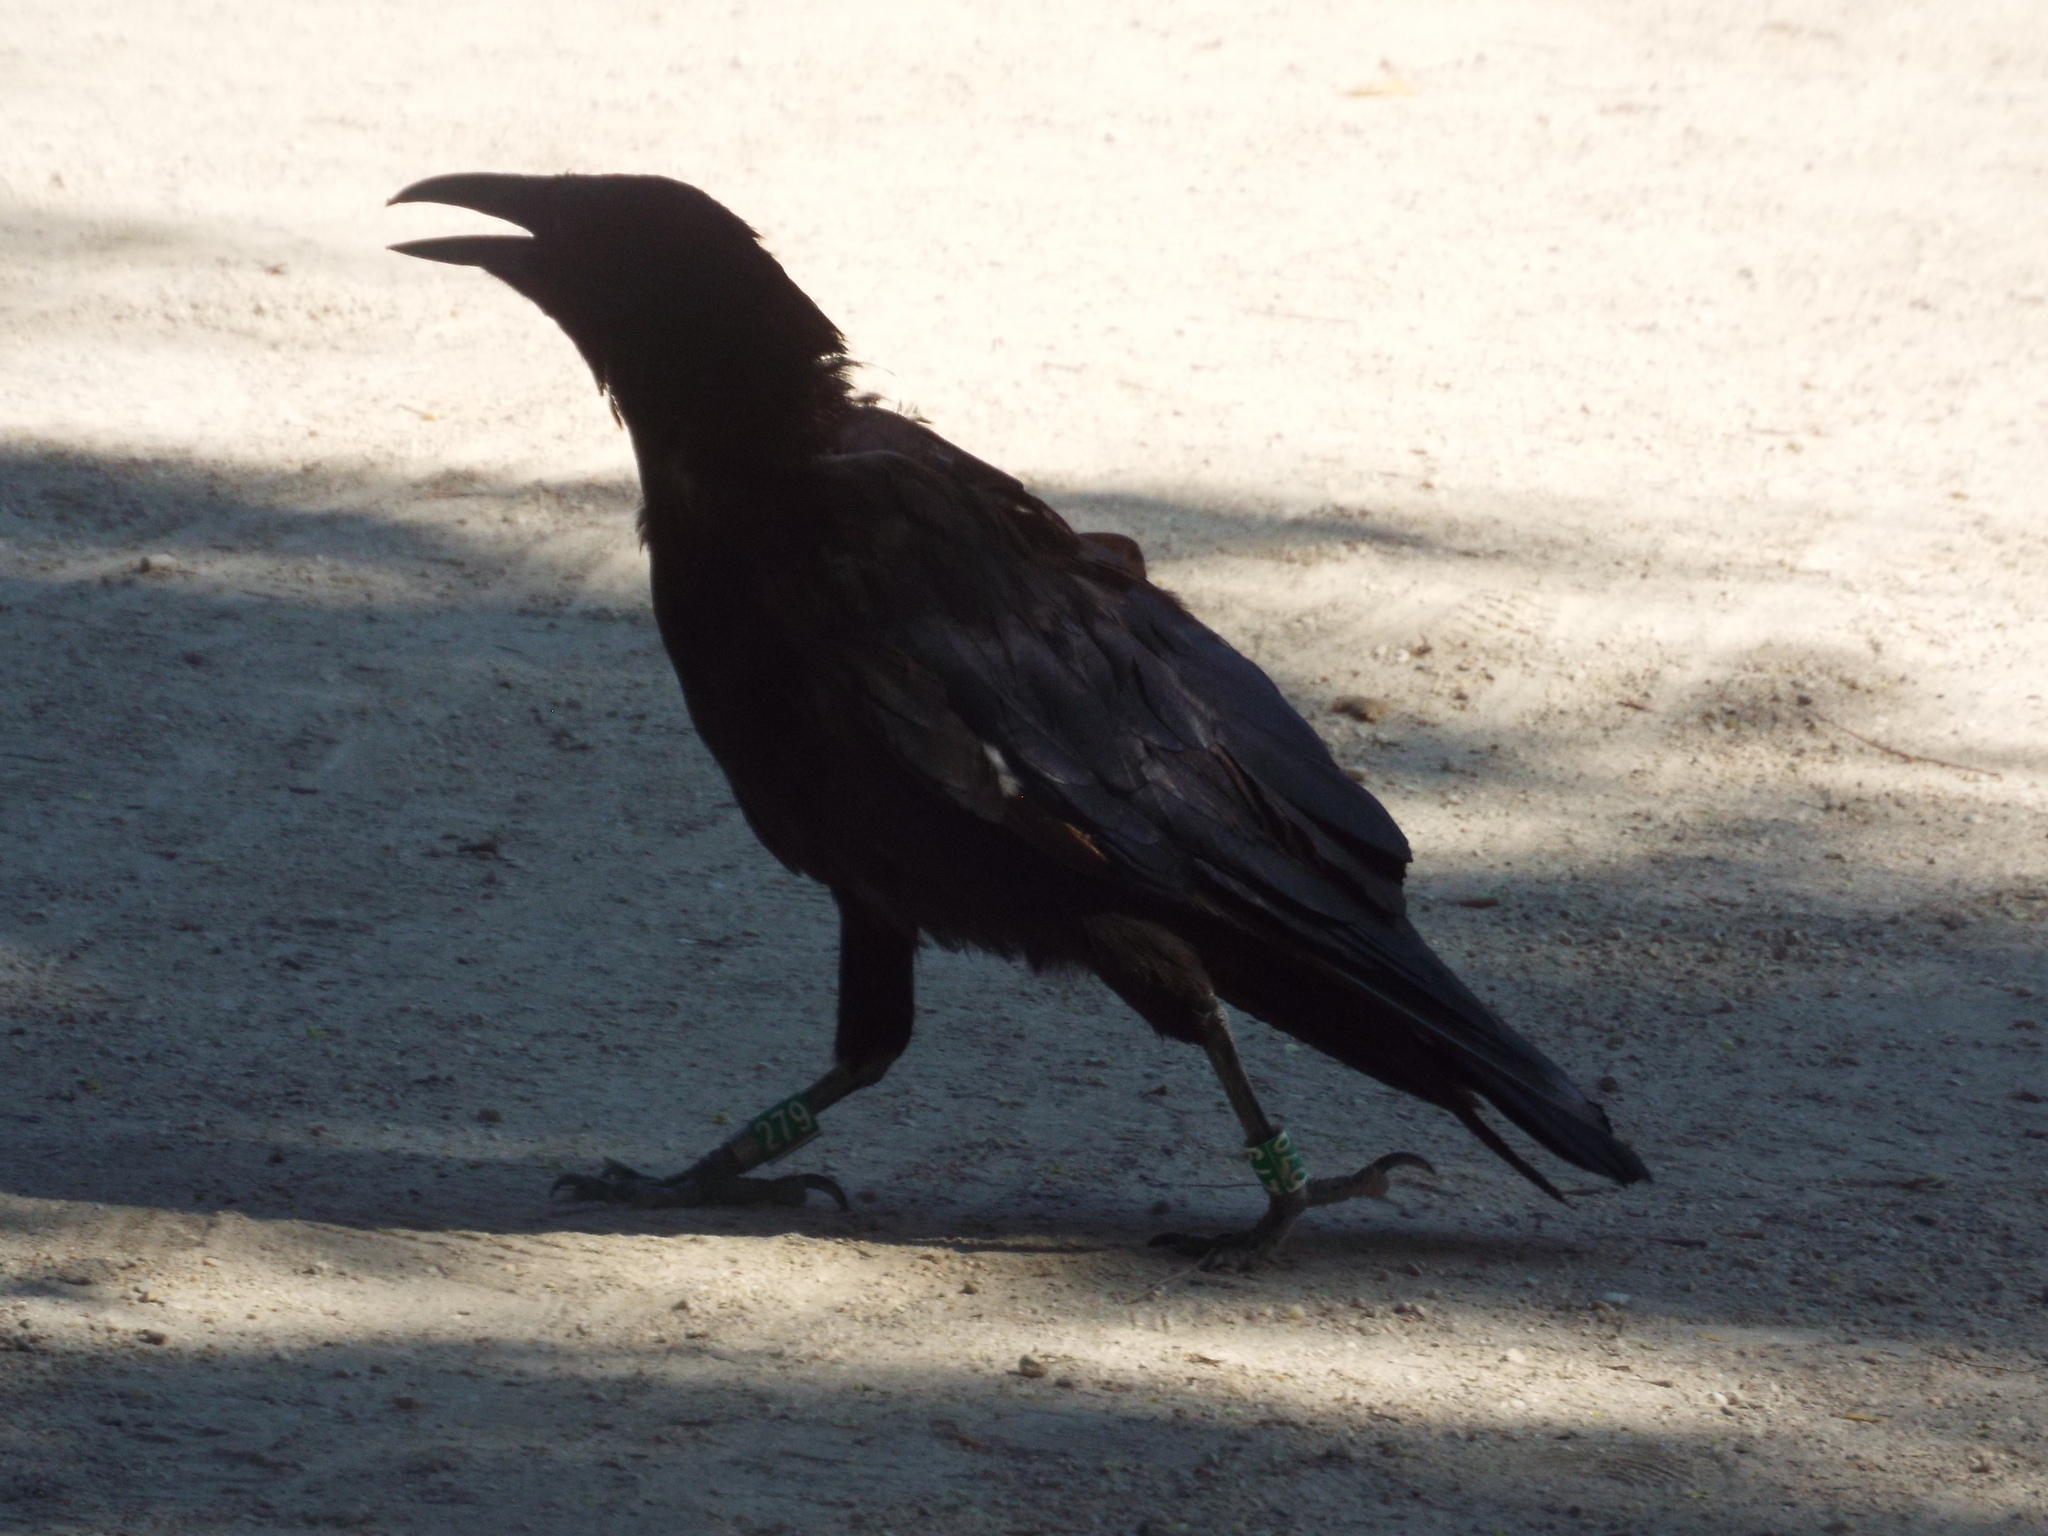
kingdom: Animalia
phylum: Chordata
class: Aves
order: Passeriformes
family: Corvidae
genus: Corvus
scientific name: Corvus corone
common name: Carrion crow
